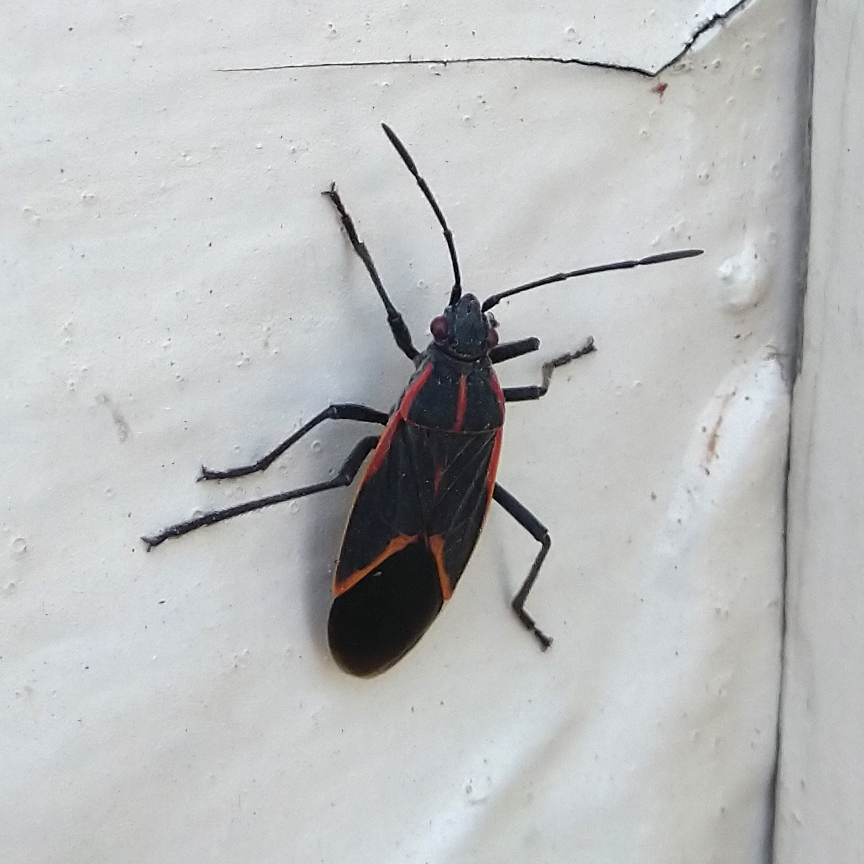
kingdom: Animalia
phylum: Arthropoda
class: Insecta
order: Hemiptera
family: Rhopalidae
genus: Boisea
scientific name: Boisea trivittata
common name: Boxelder bug
